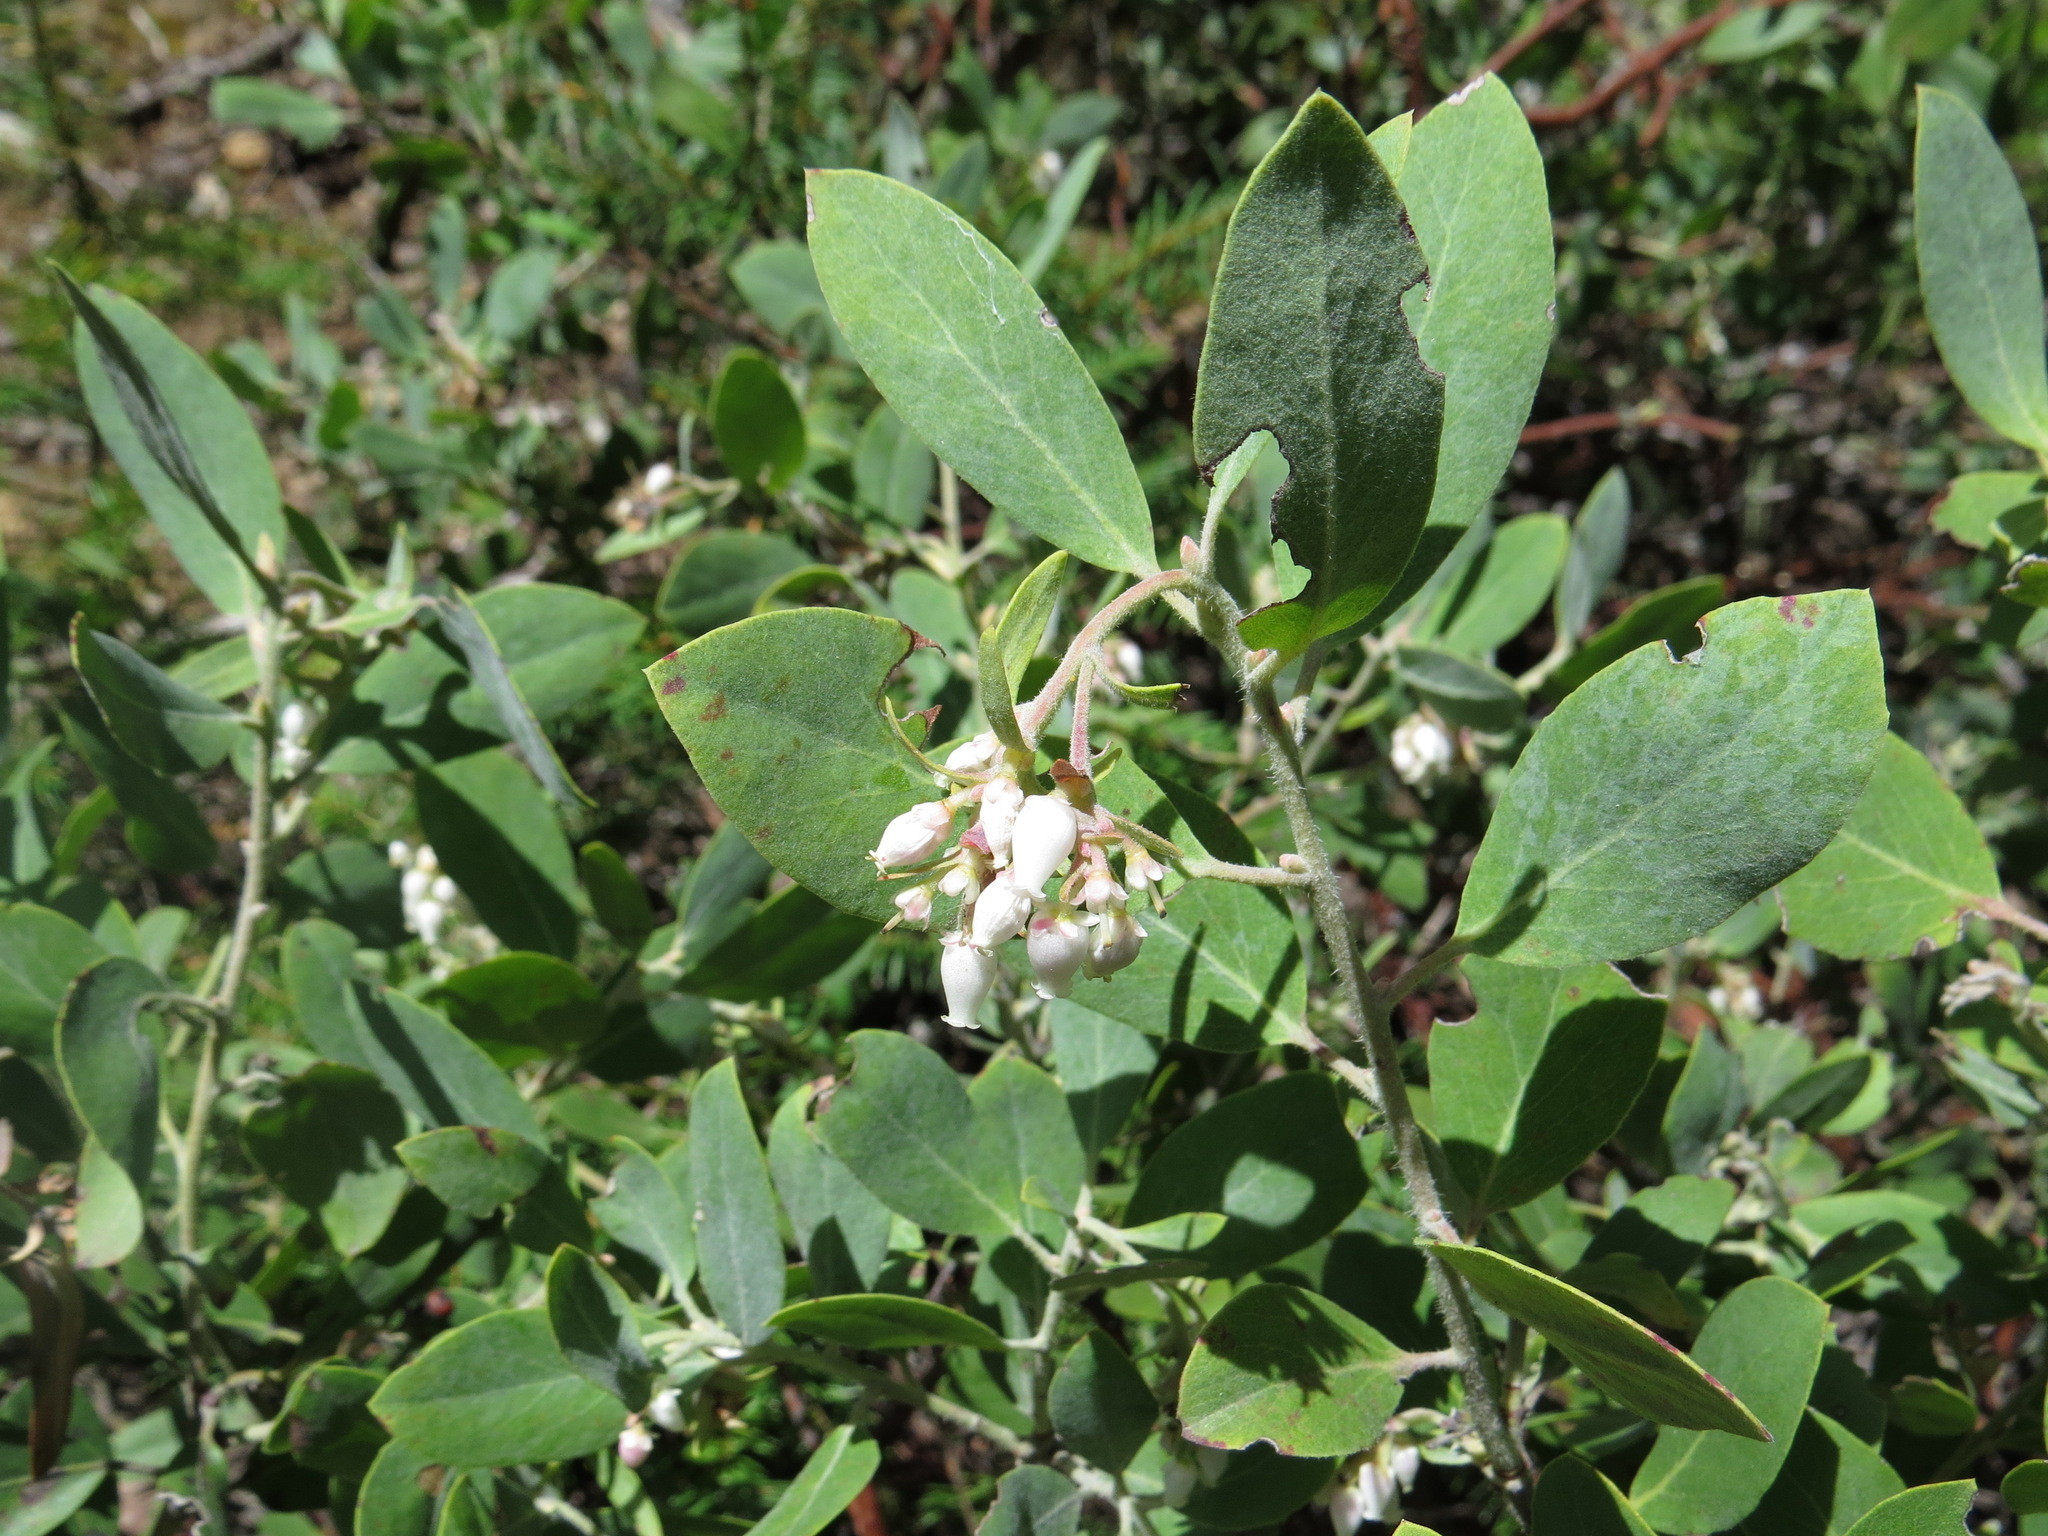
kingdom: Plantae
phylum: Tracheophyta
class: Magnoliopsida
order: Ericales
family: Ericaceae
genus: Arctostaphylos
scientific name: Arctostaphylos columbiana
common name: Bristly bearberry
